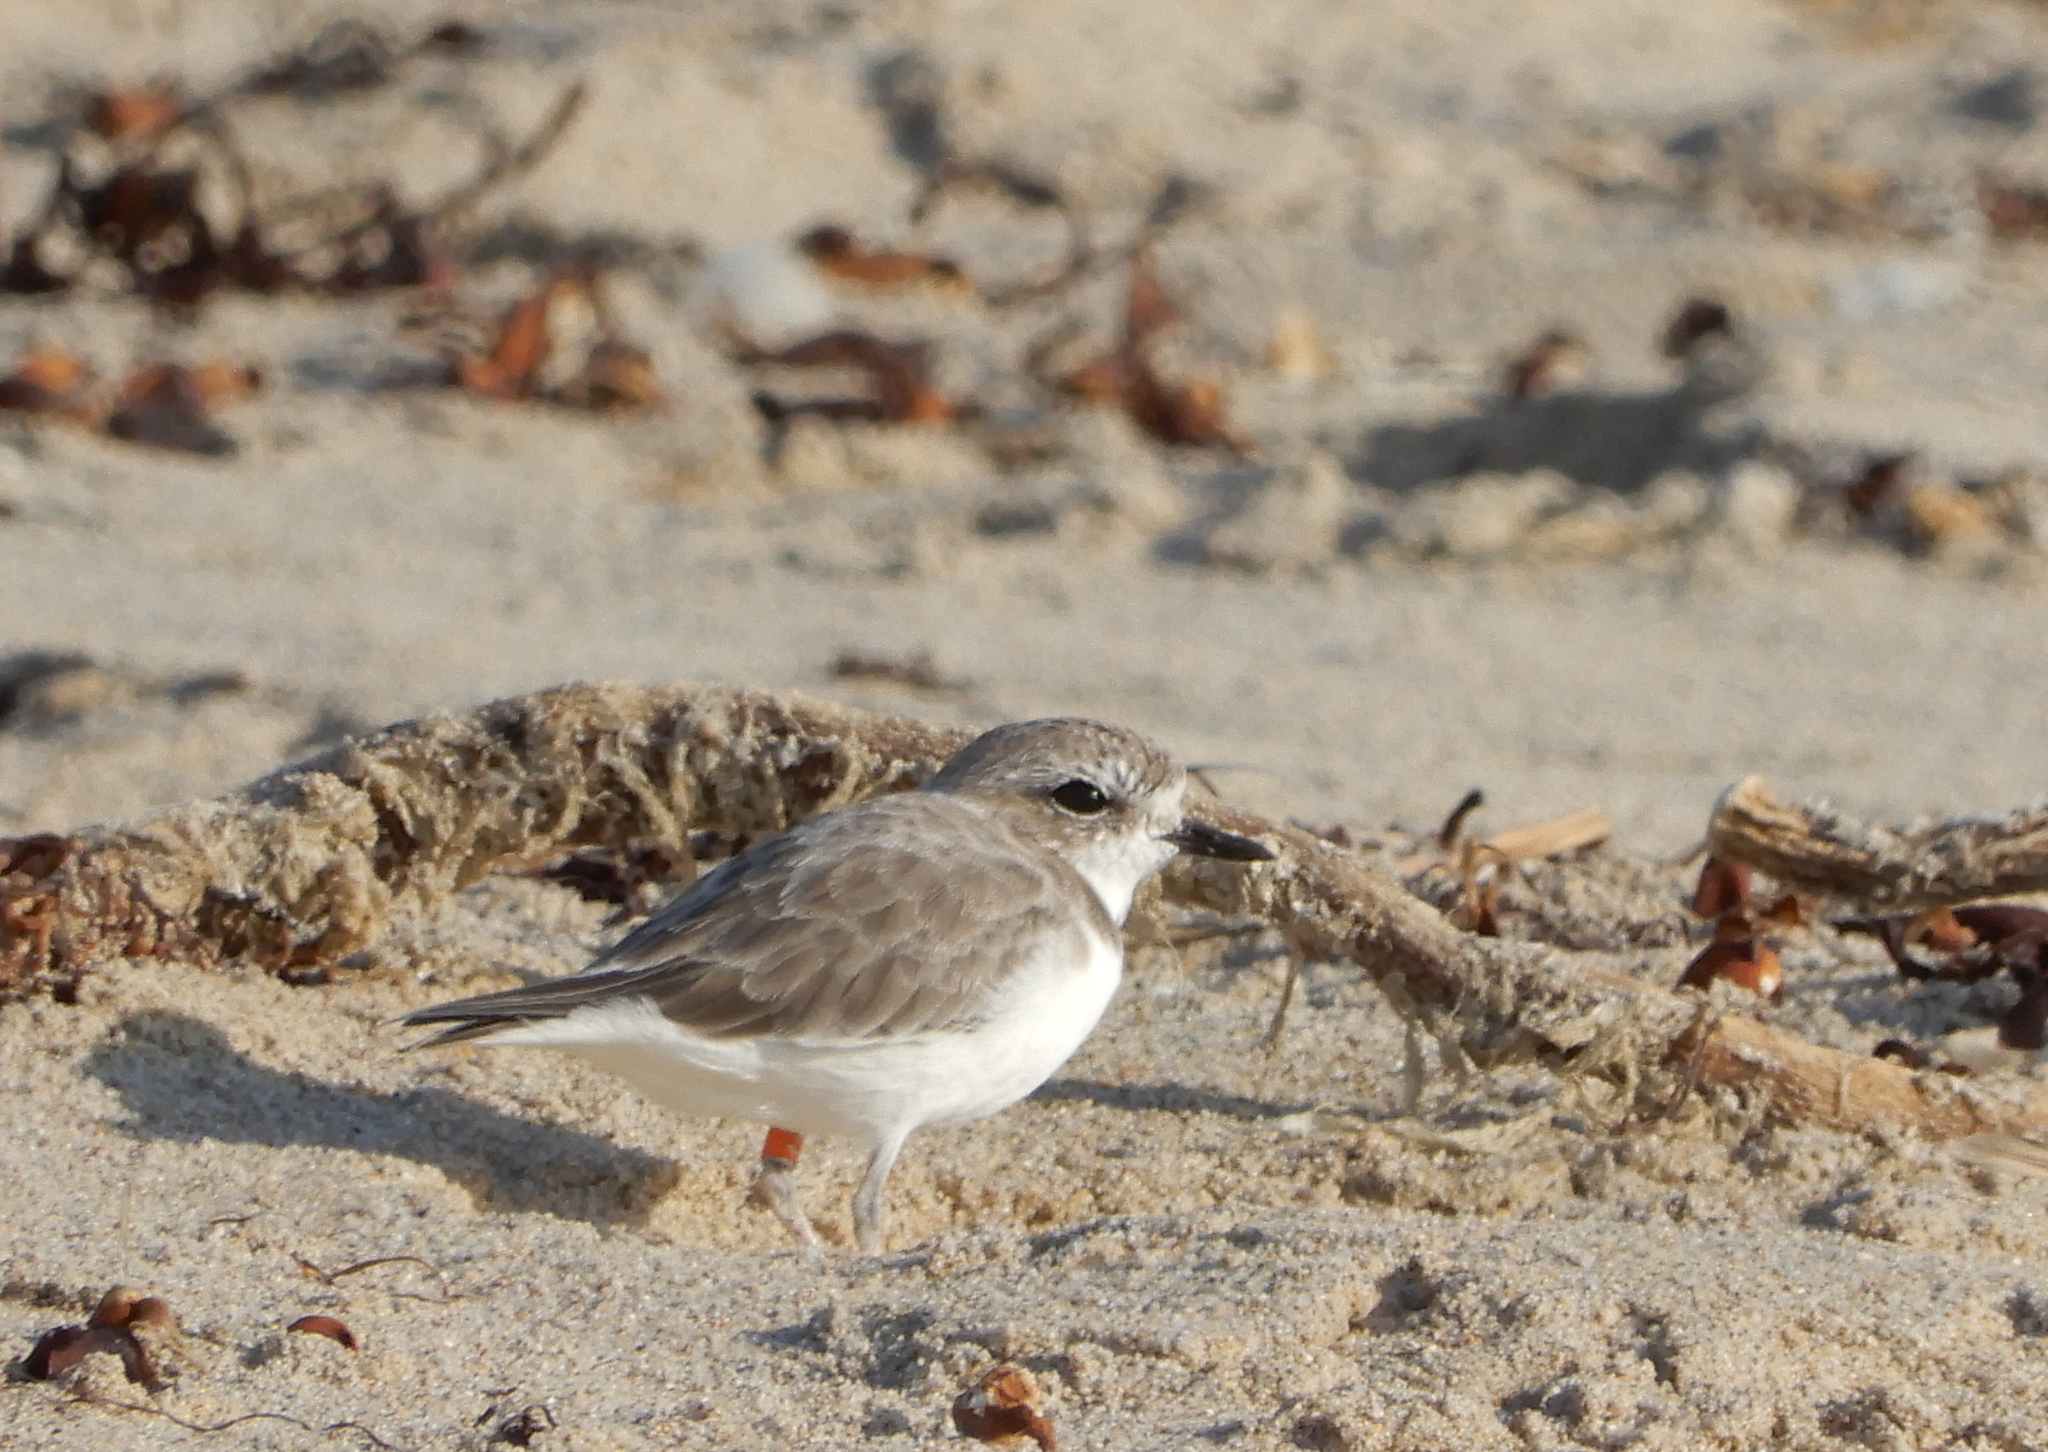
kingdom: Animalia
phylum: Chordata
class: Aves
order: Charadriiformes
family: Charadriidae
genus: Anarhynchus
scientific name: Anarhynchus
